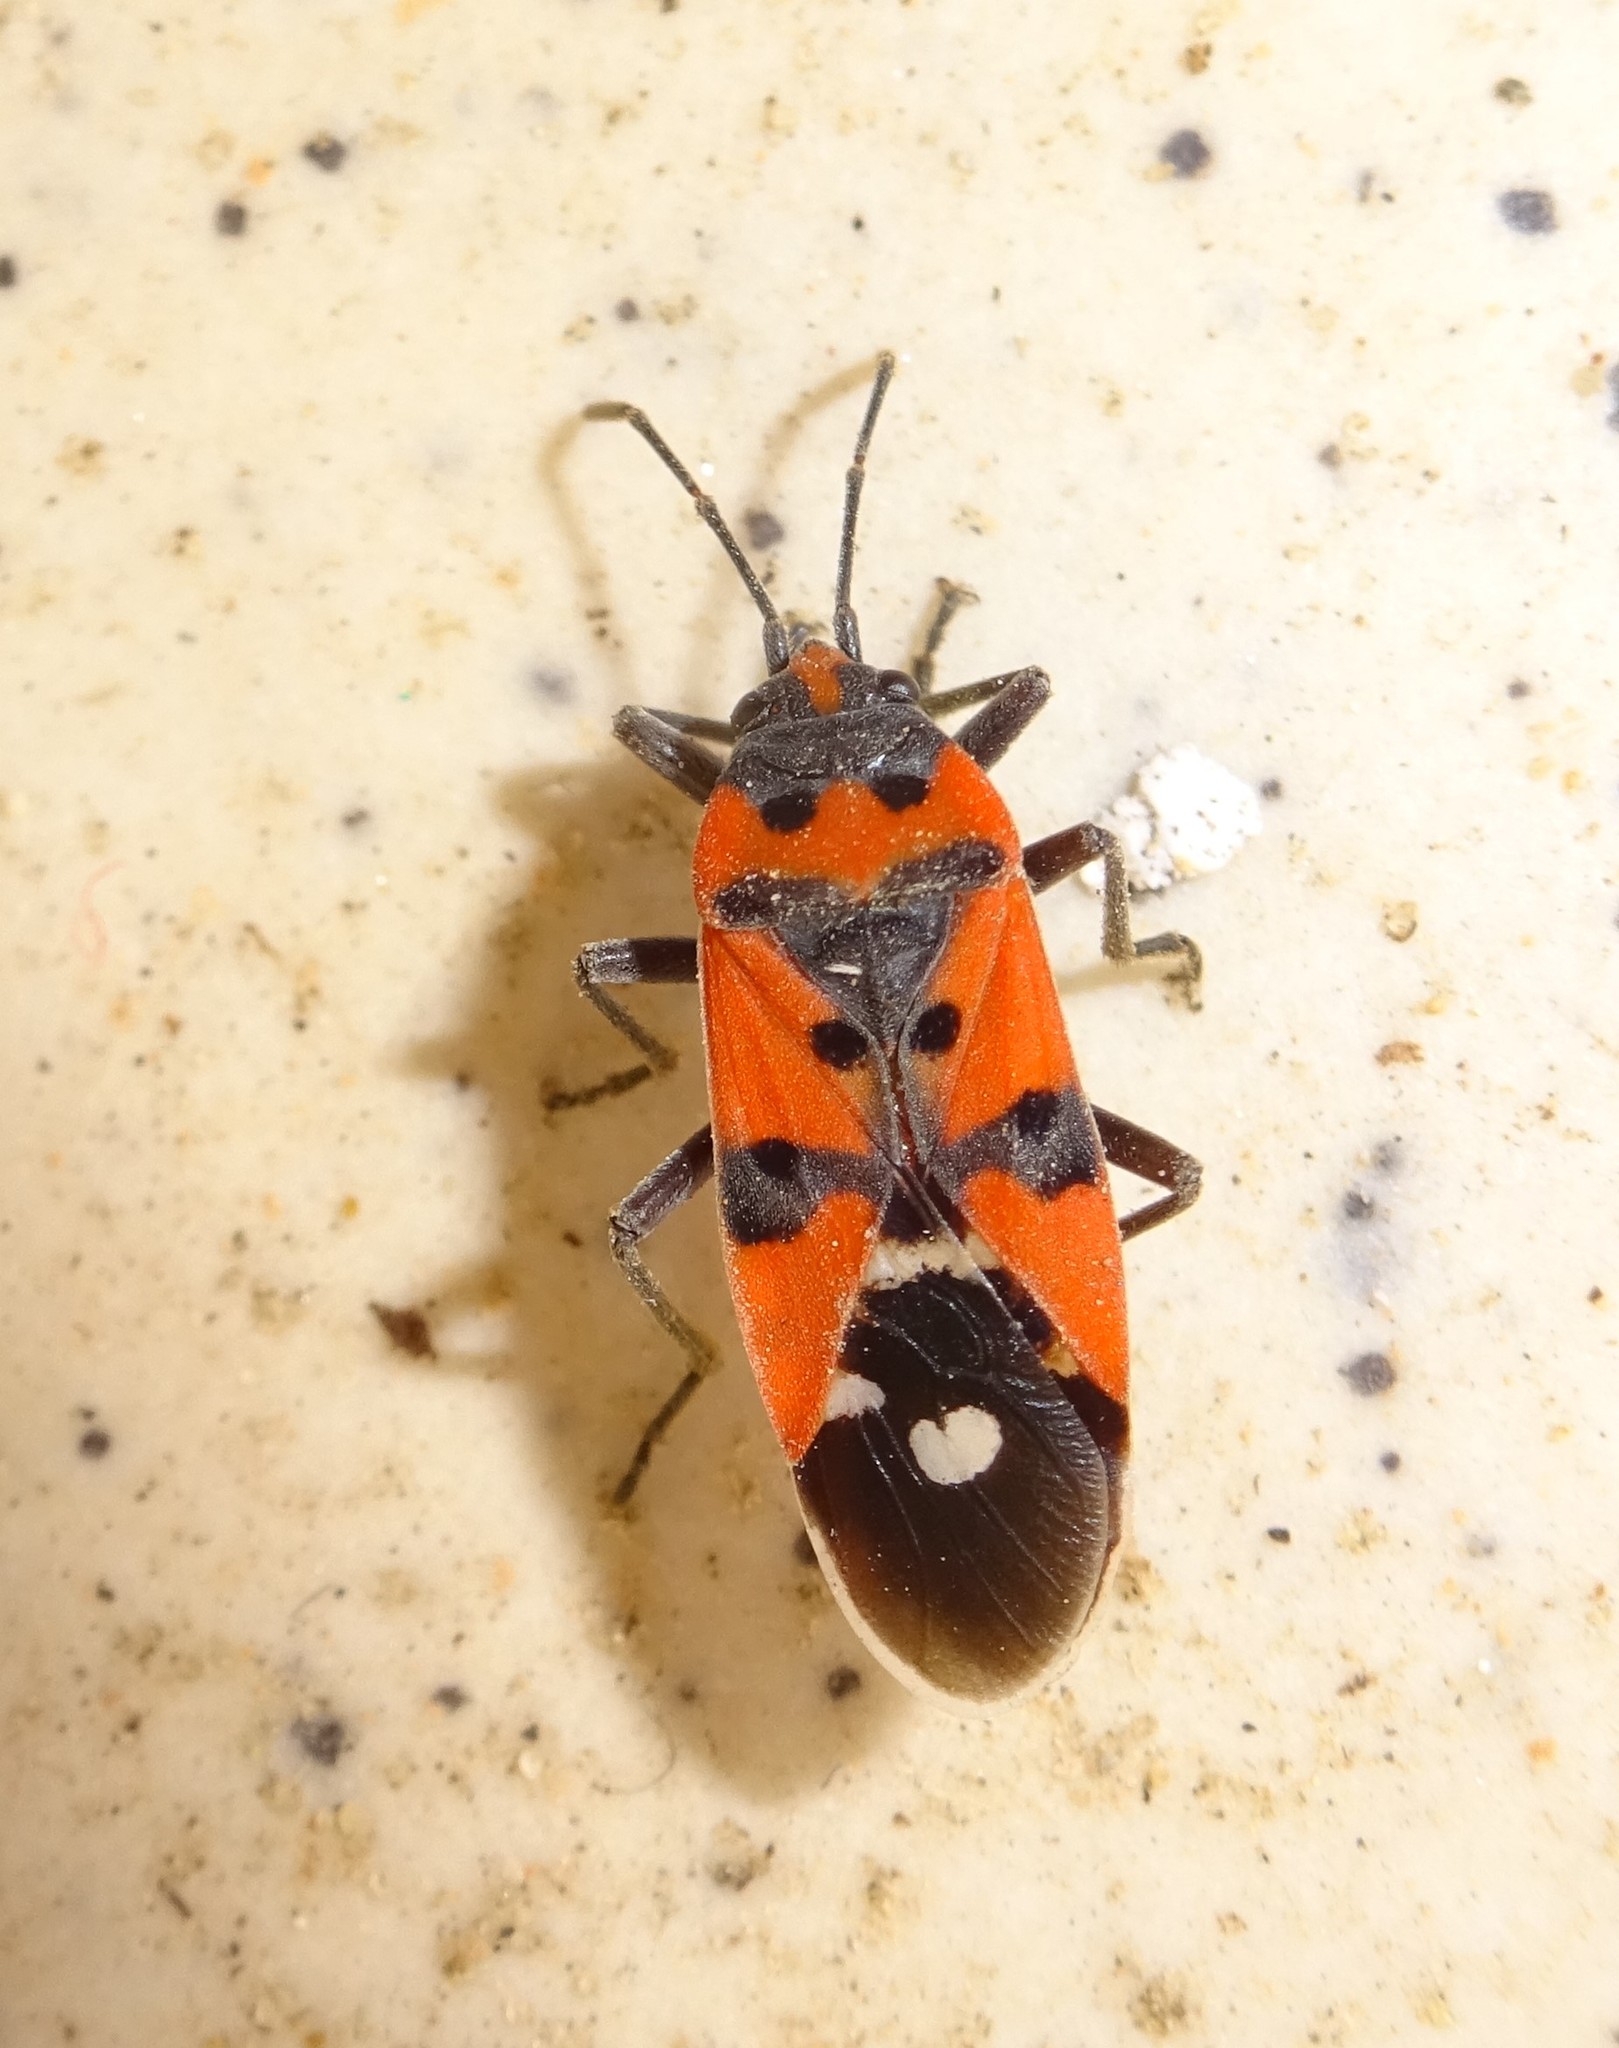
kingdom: Animalia
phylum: Arthropoda
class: Insecta
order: Hemiptera
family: Lygaeidae
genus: Lygaeus
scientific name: Lygaeus equestris
